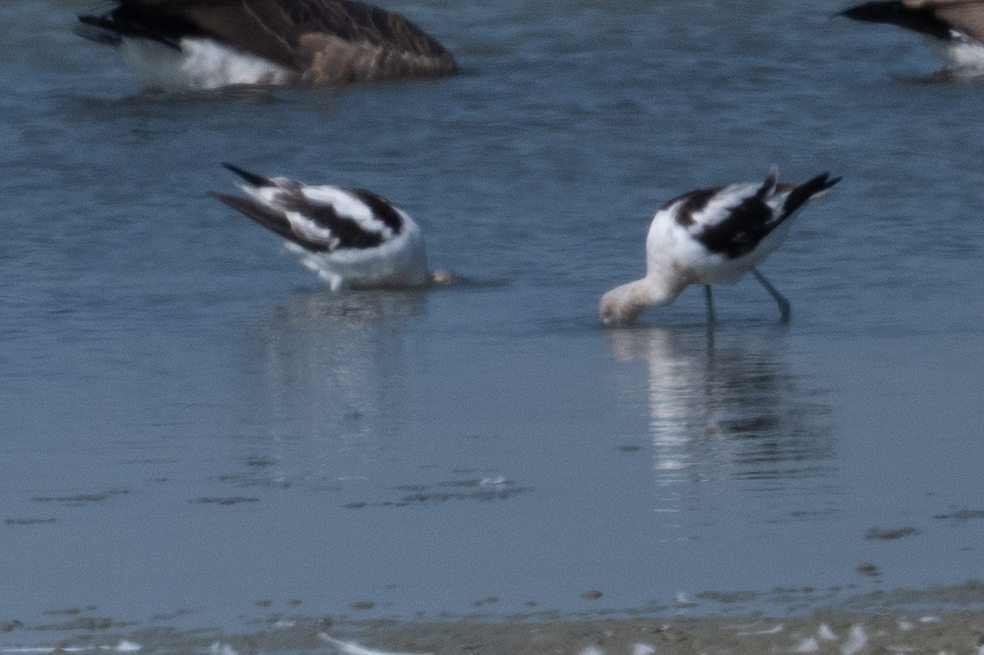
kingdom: Animalia
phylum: Chordata
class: Aves
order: Charadriiformes
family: Recurvirostridae
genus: Recurvirostra
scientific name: Recurvirostra americana
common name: American avocet
